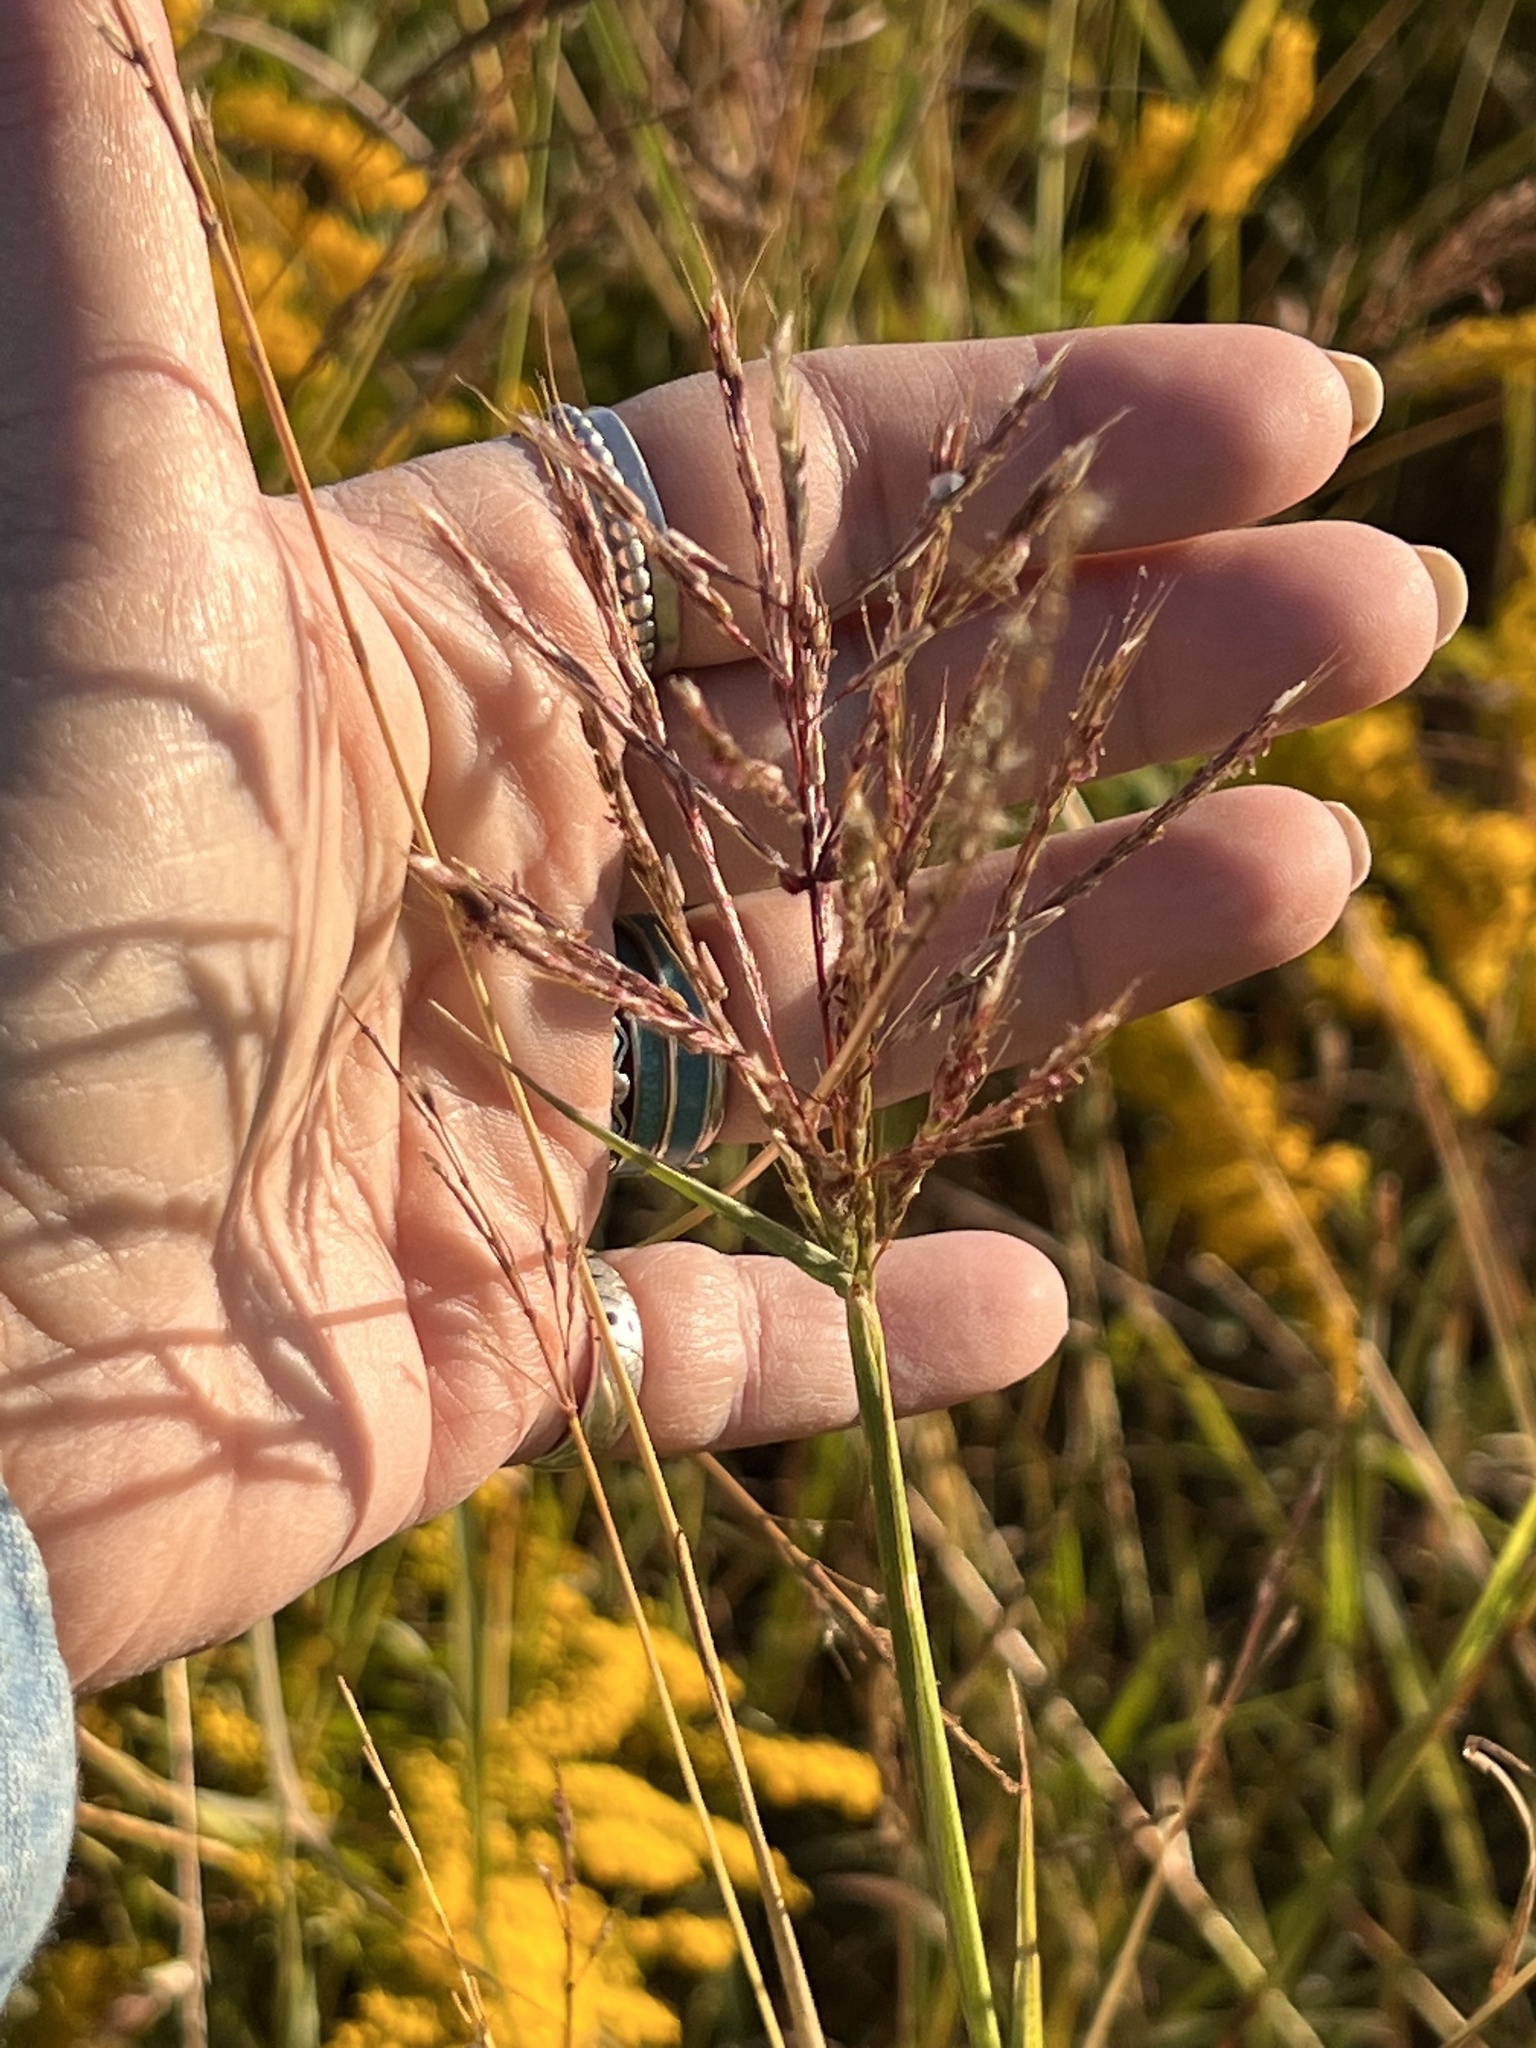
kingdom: Plantae
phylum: Tracheophyta
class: Liliopsida
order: Poales
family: Poaceae
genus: Bothriochloa
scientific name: Bothriochloa bladhii
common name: Caucasian bluestem
